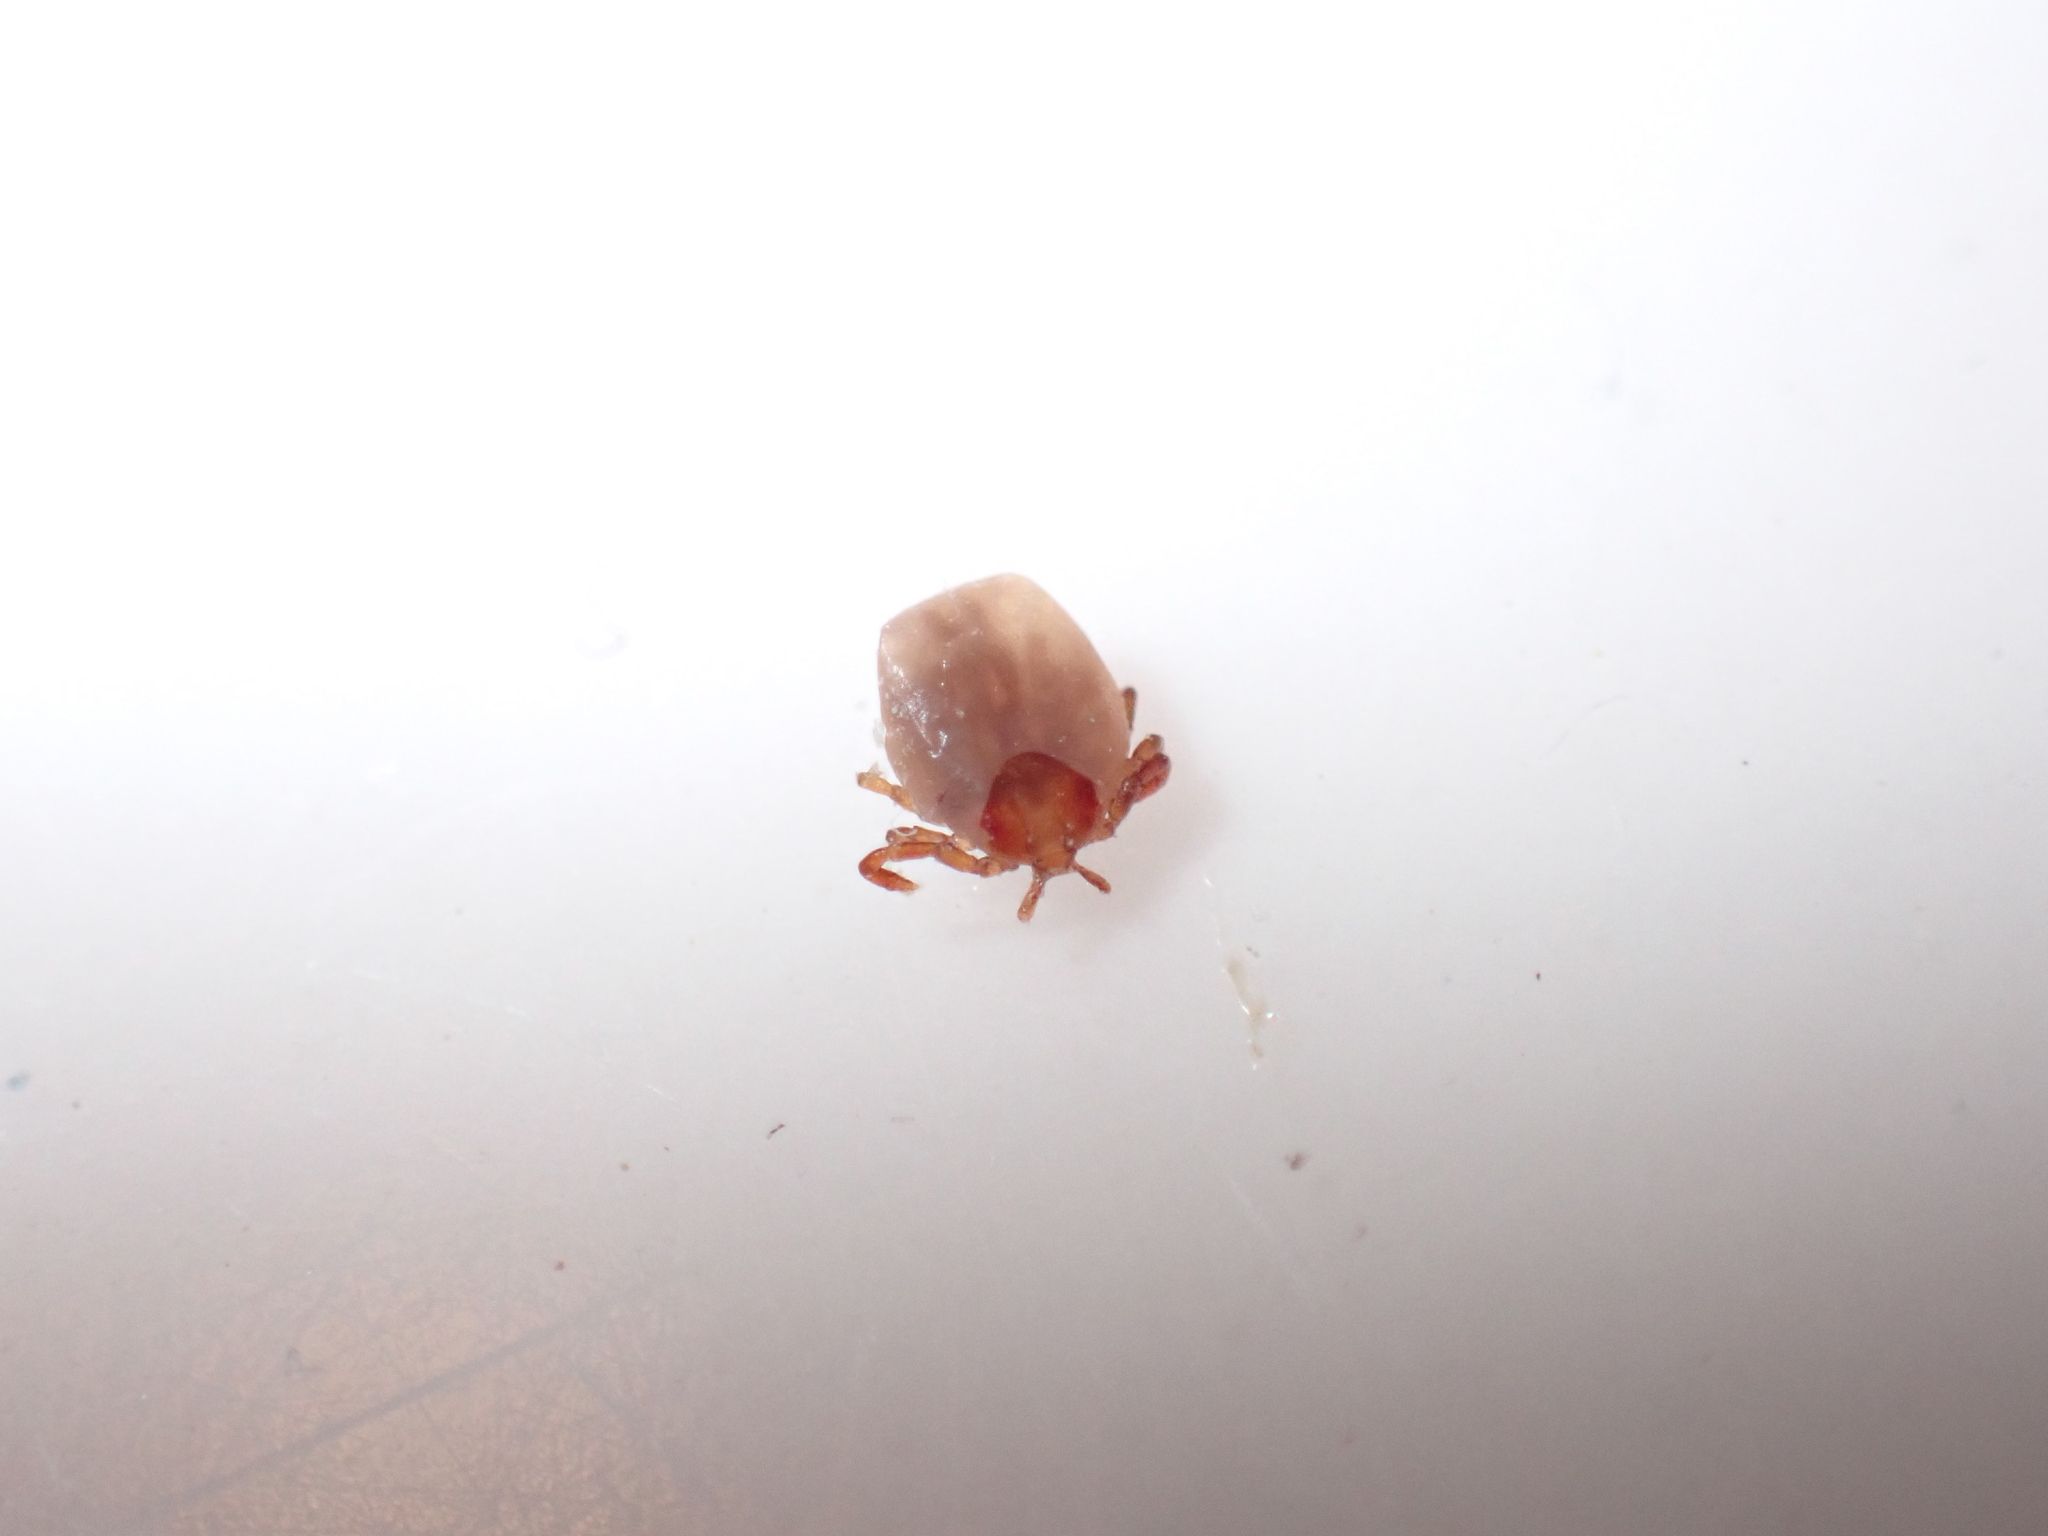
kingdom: Animalia
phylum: Arthropoda
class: Arachnida
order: Ixodida
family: Ixodidae
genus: Amblyomma
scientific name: Amblyomma americanum
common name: Lone star tick
